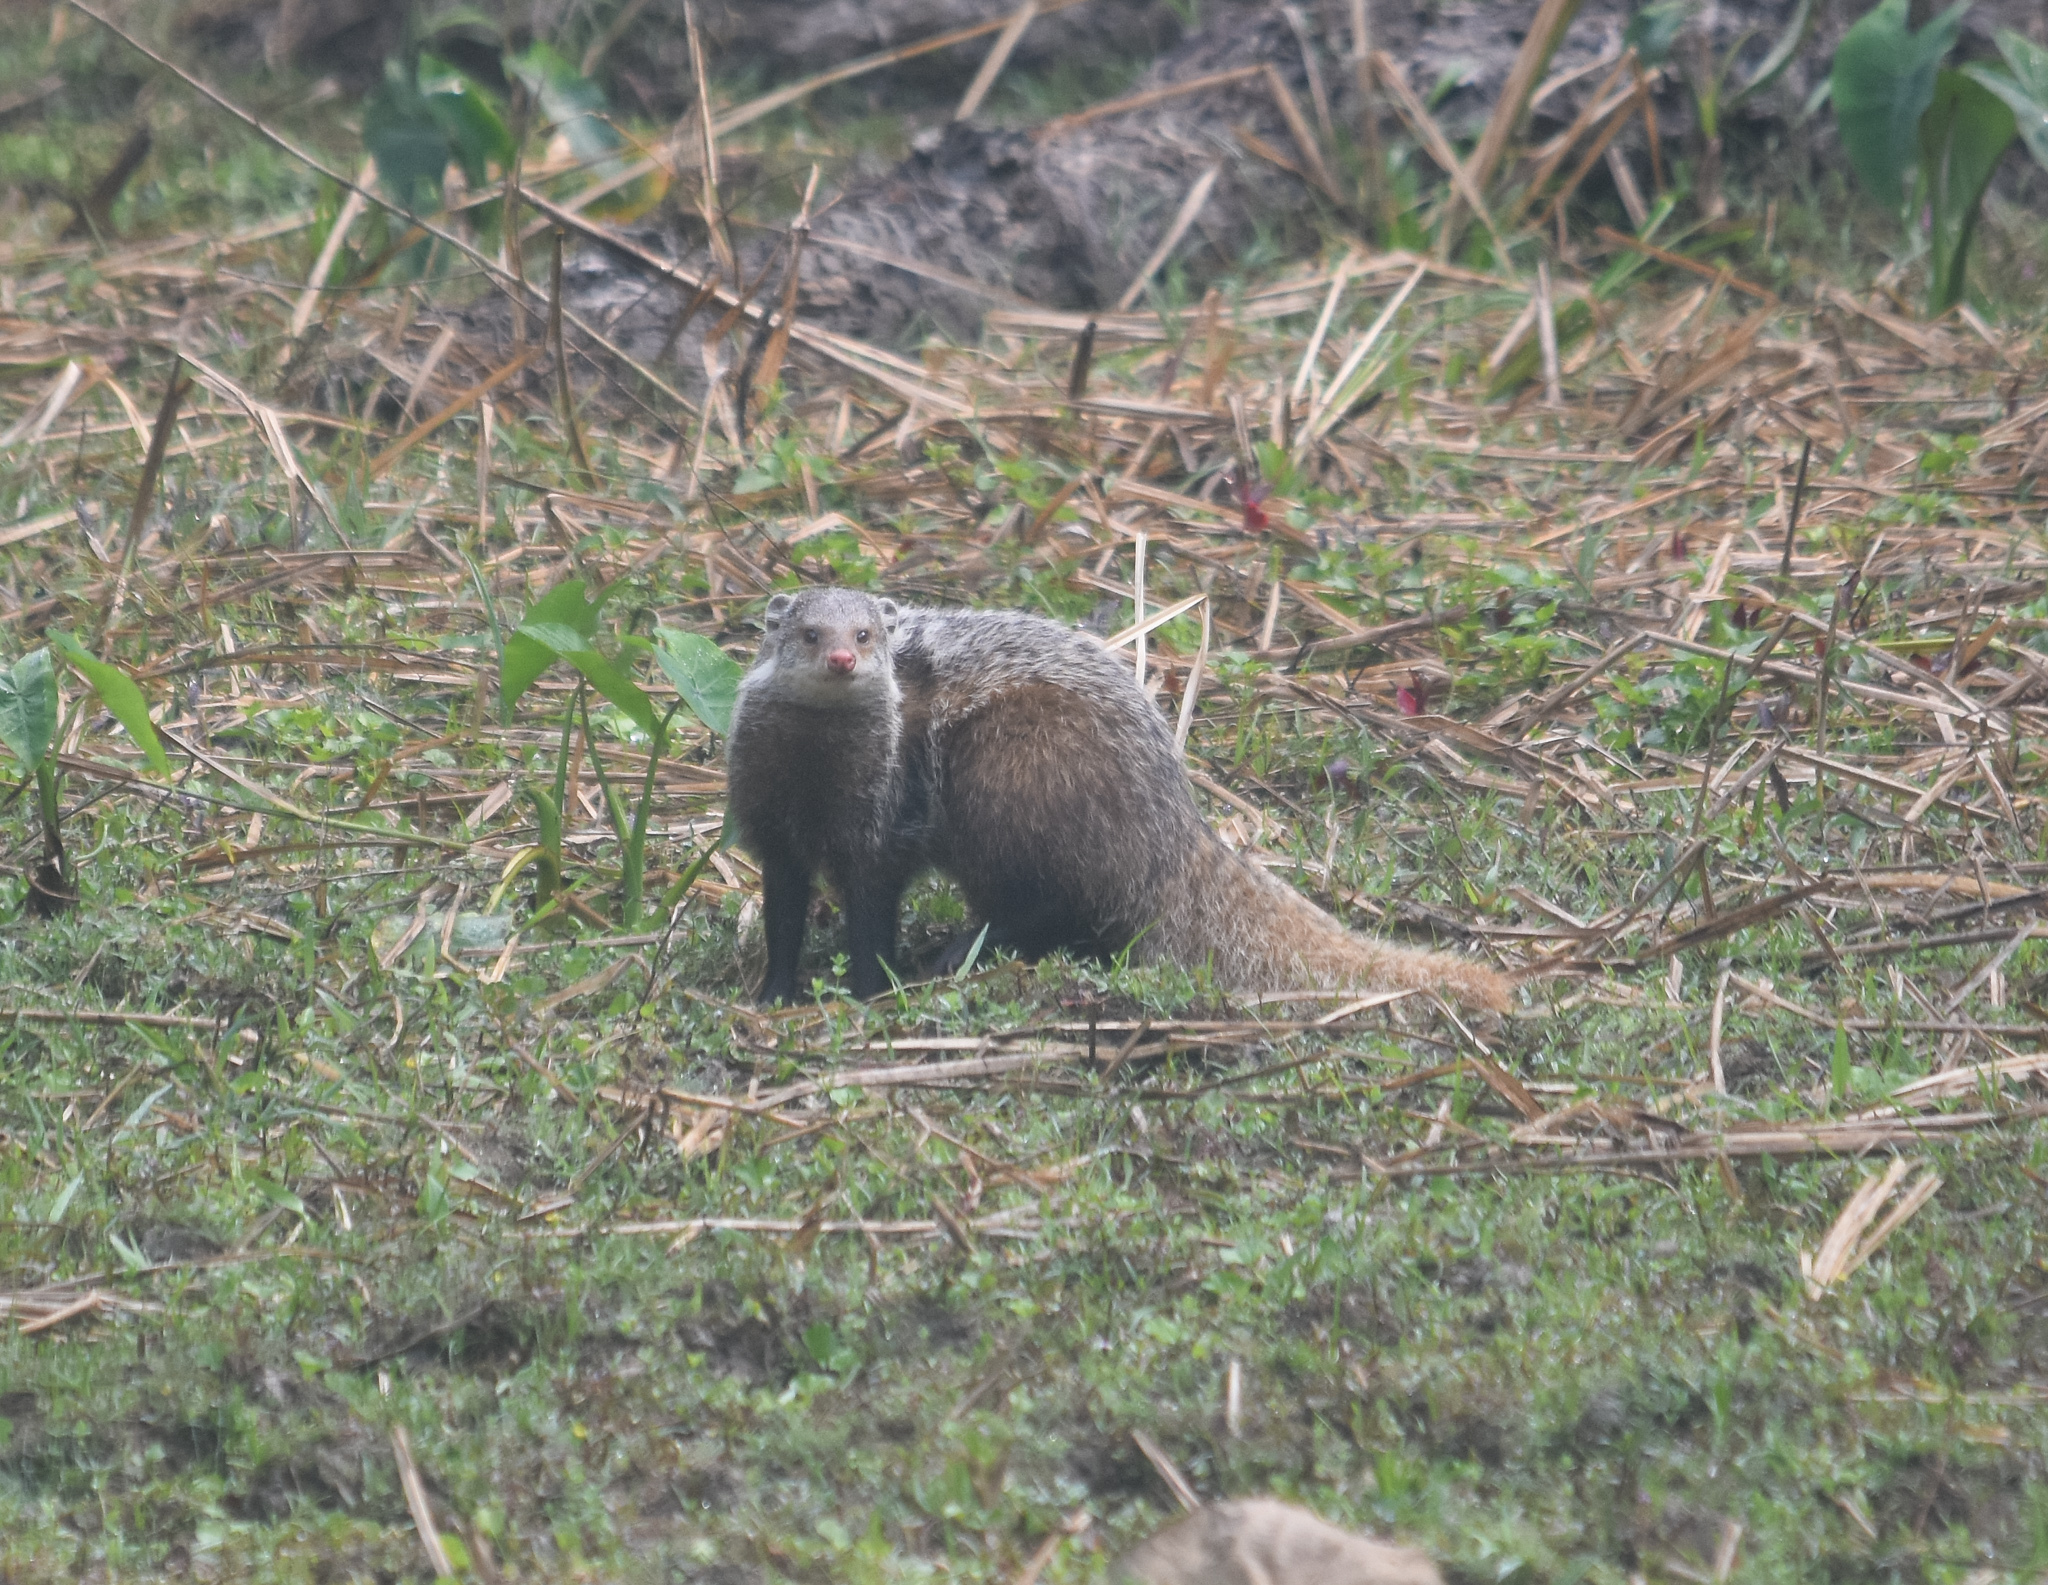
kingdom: Animalia
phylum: Chordata
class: Mammalia
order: Carnivora
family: Herpestidae
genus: Herpestes
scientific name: Herpestes urva
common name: Crab-eating mongoose
